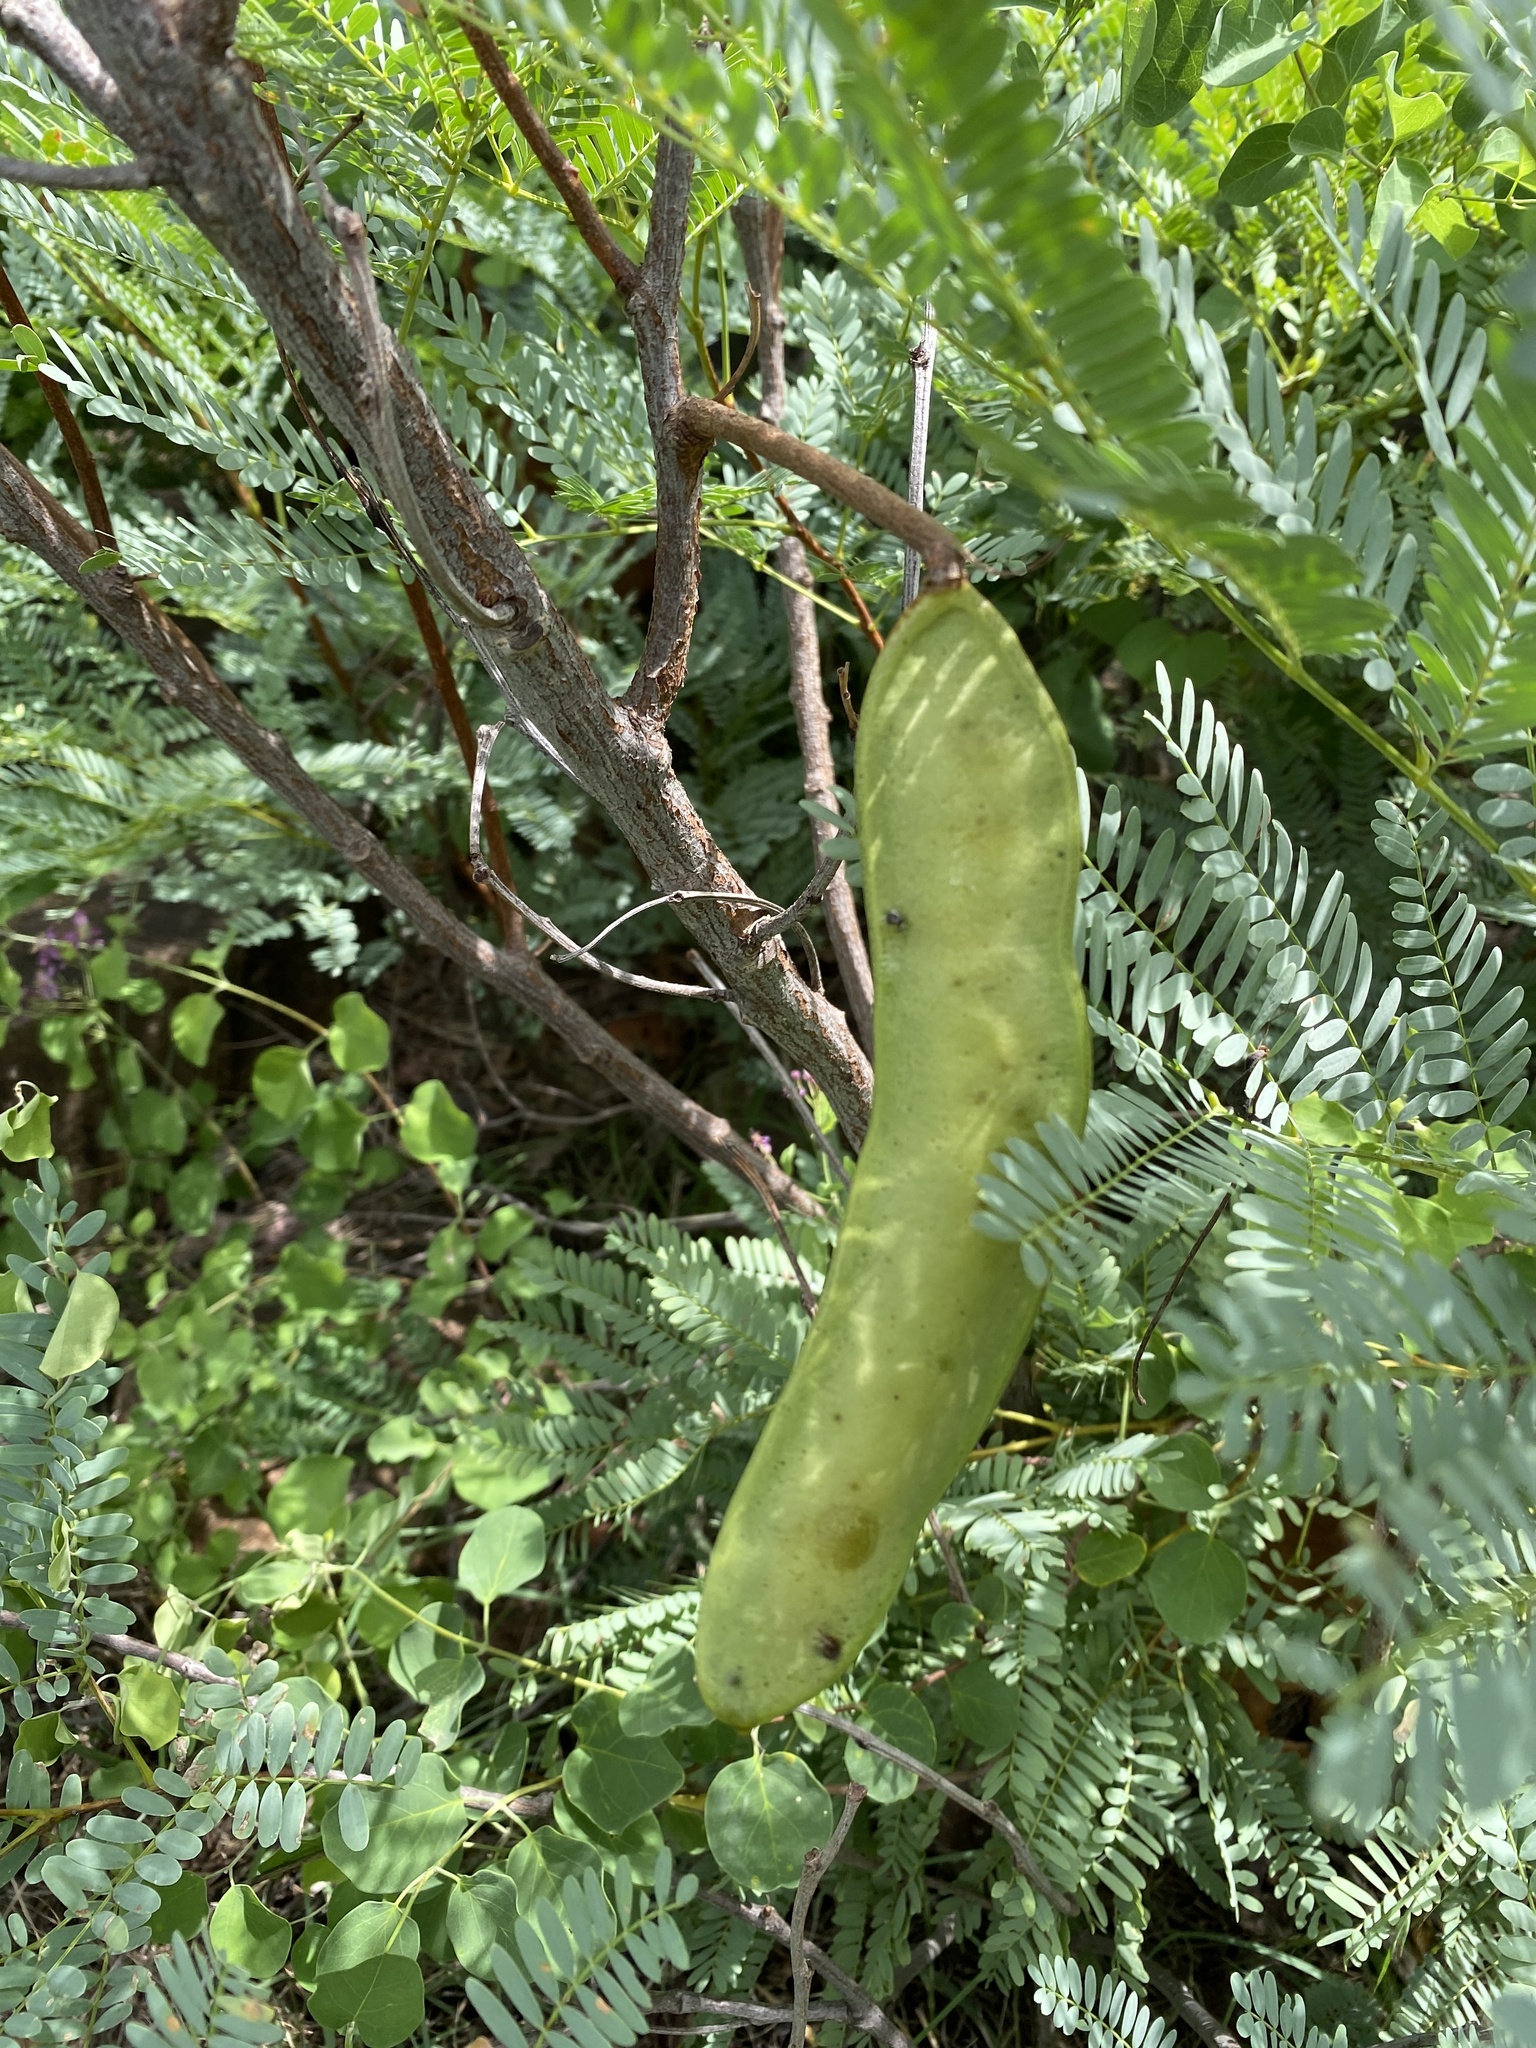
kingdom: Plantae
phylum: Tracheophyta
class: Magnoliopsida
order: Fabales
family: Fabaceae
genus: Elephantorrhiza
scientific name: Elephantorrhiza burkei
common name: Broad-pod elephant-root
